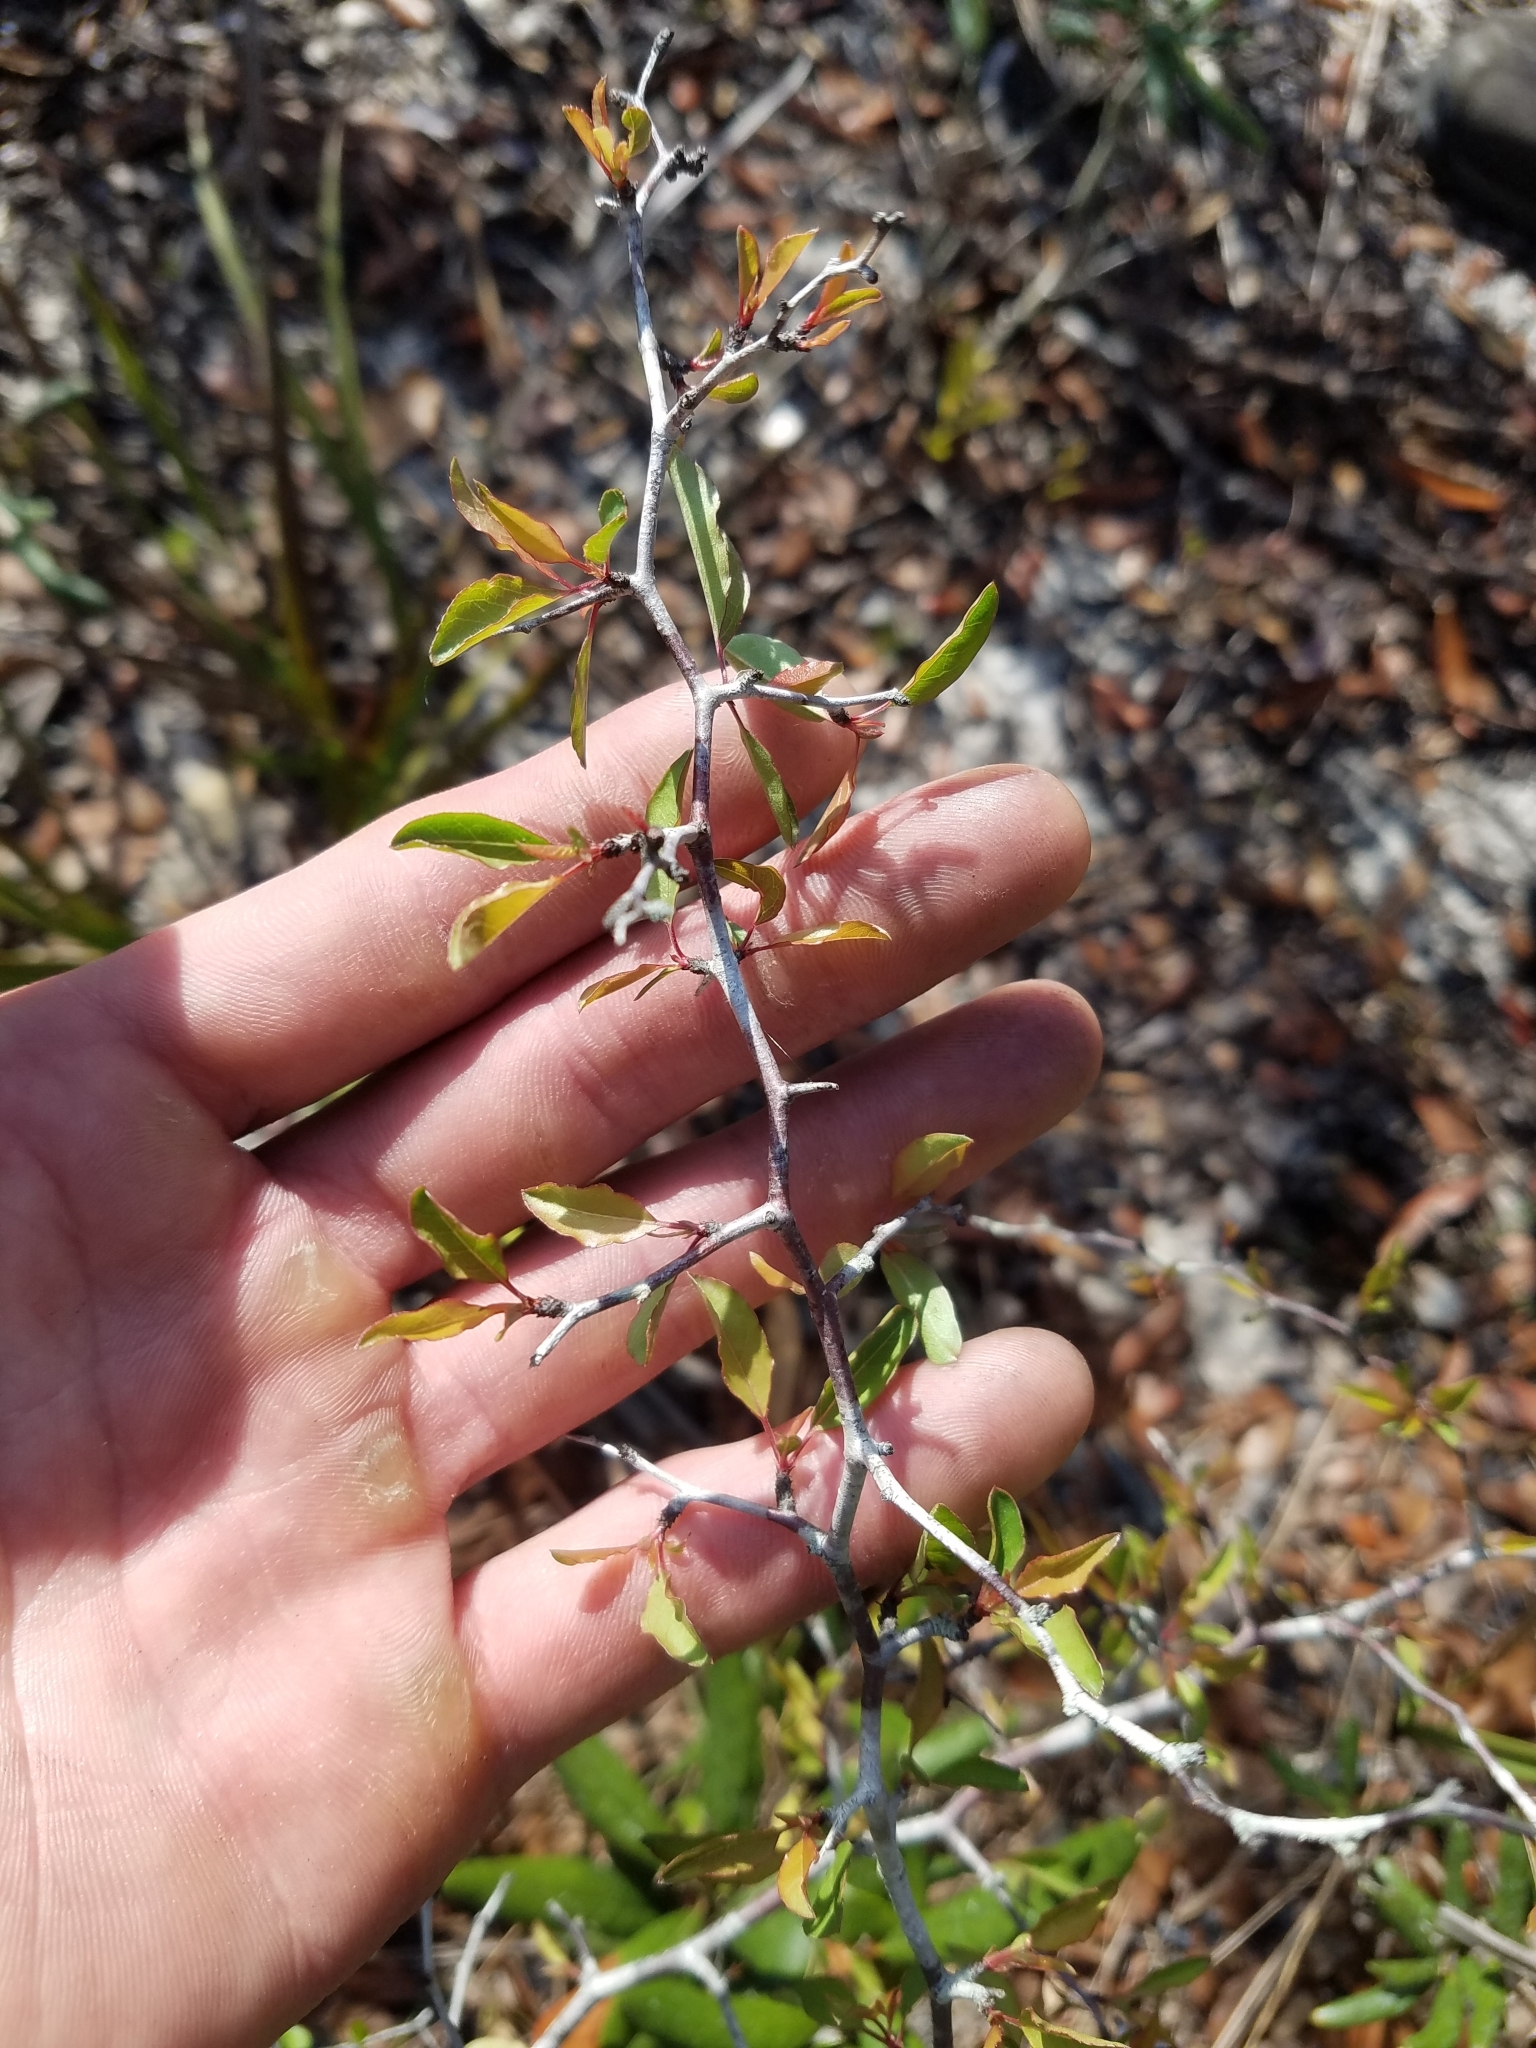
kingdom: Plantae
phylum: Tracheophyta
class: Magnoliopsida
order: Rosales
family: Rosaceae
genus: Prunus
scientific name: Prunus geniculata
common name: Scrub plum
